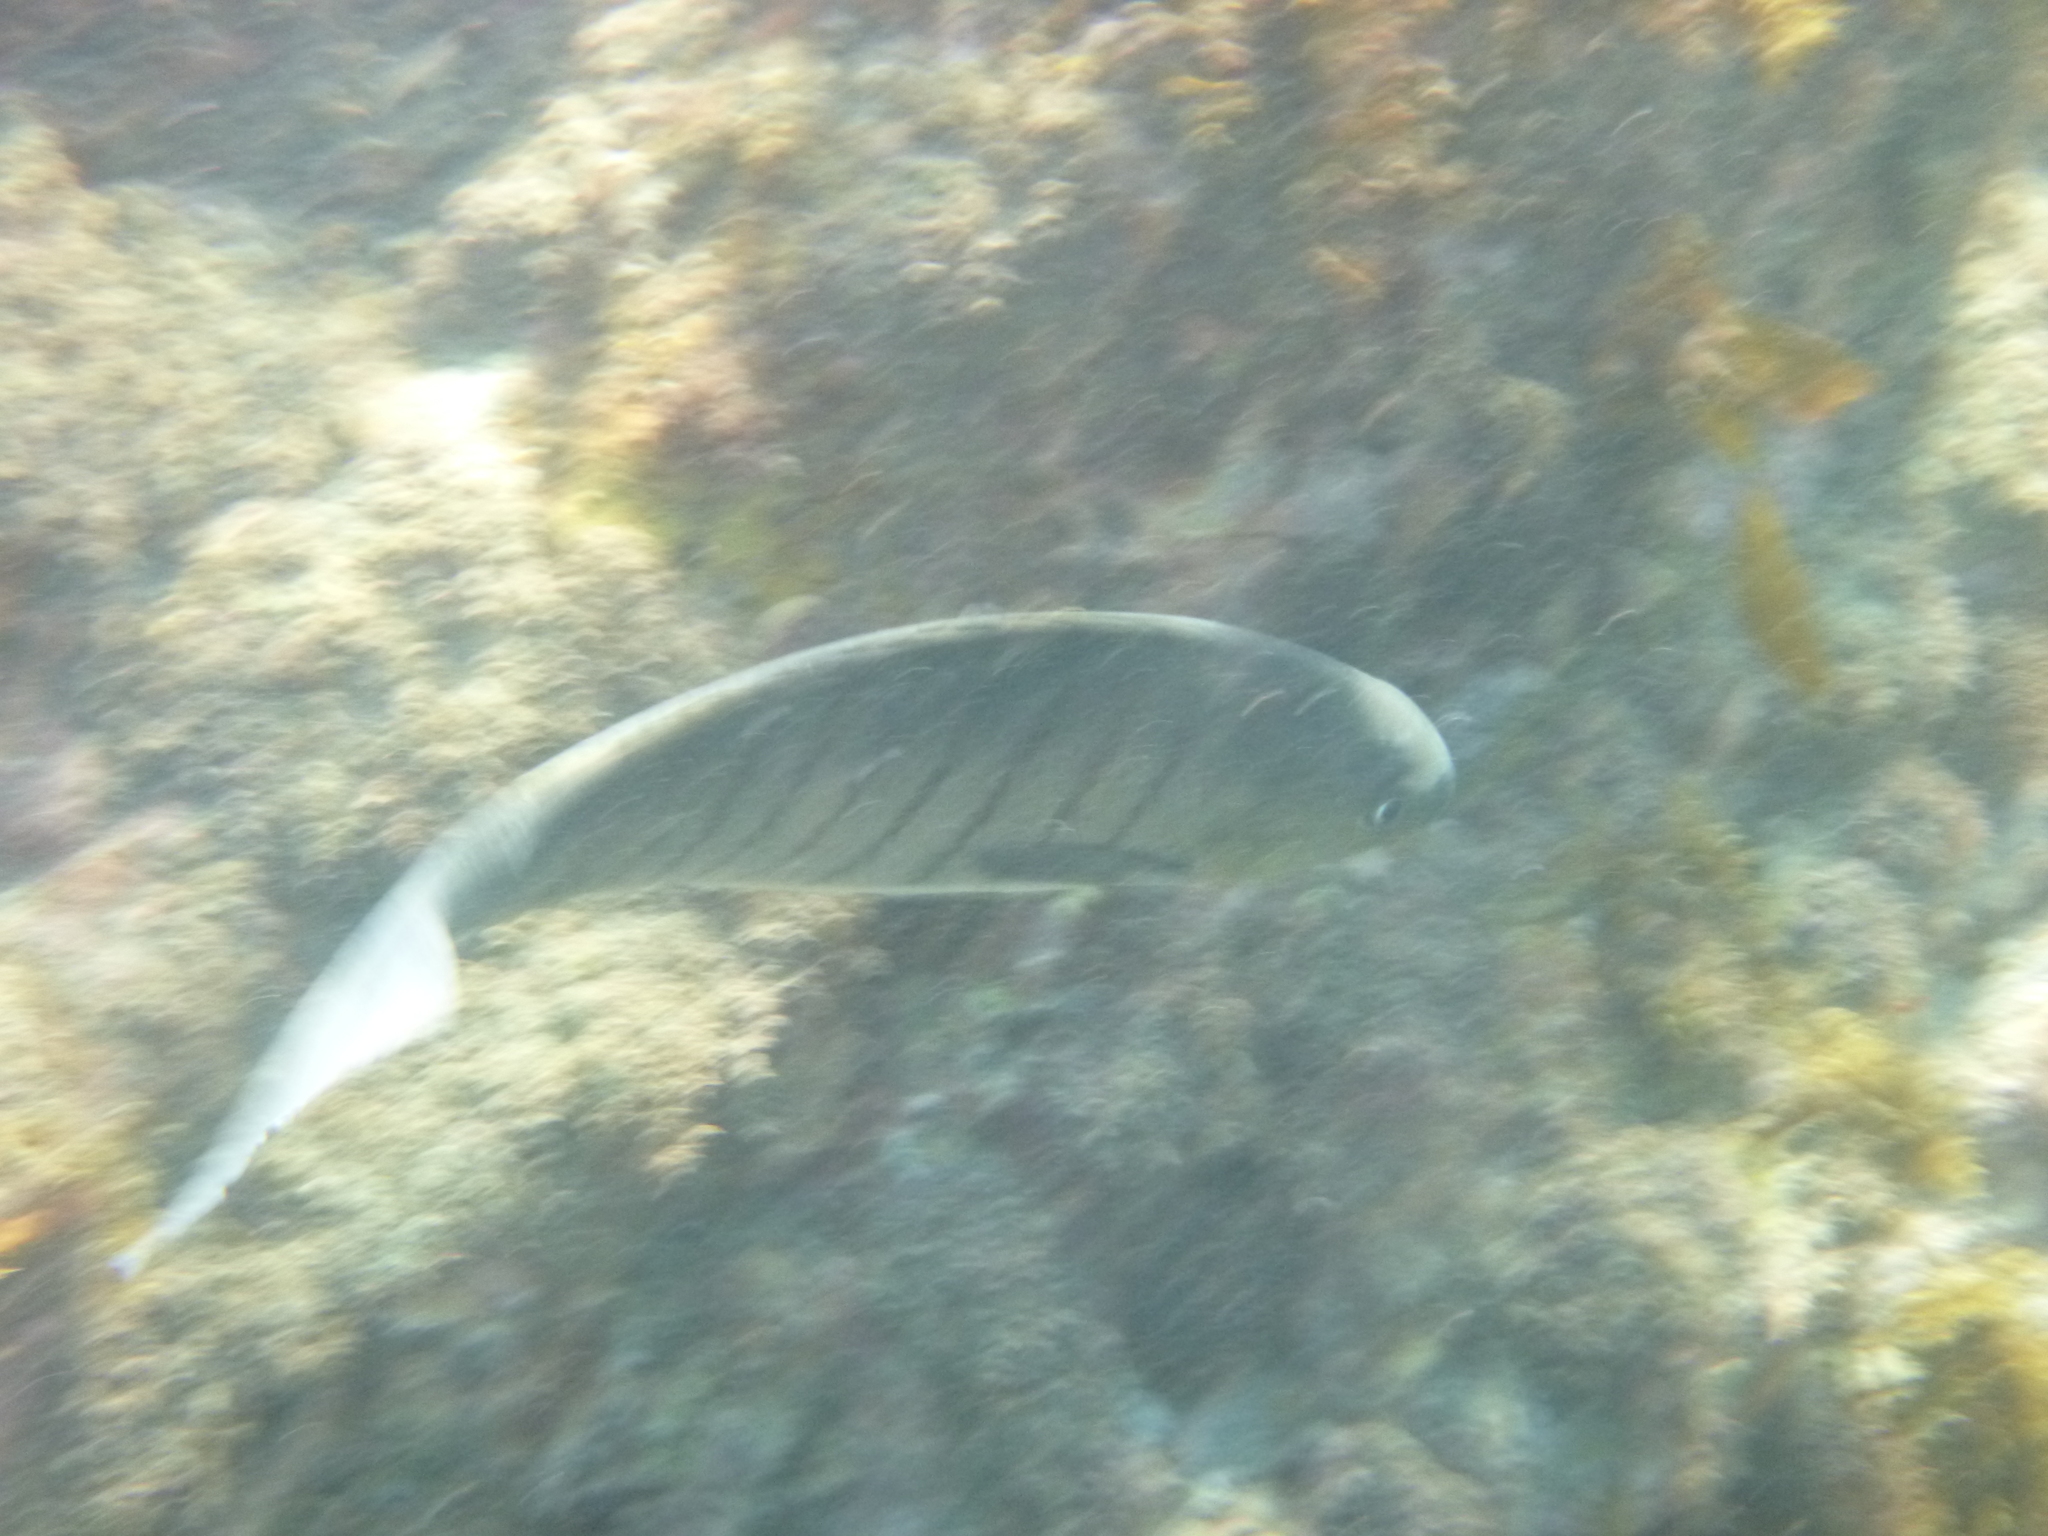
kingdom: Animalia
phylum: Chordata
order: Perciformes
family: Kyphosidae
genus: Girella
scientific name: Girella tricuspidata
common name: Parore
